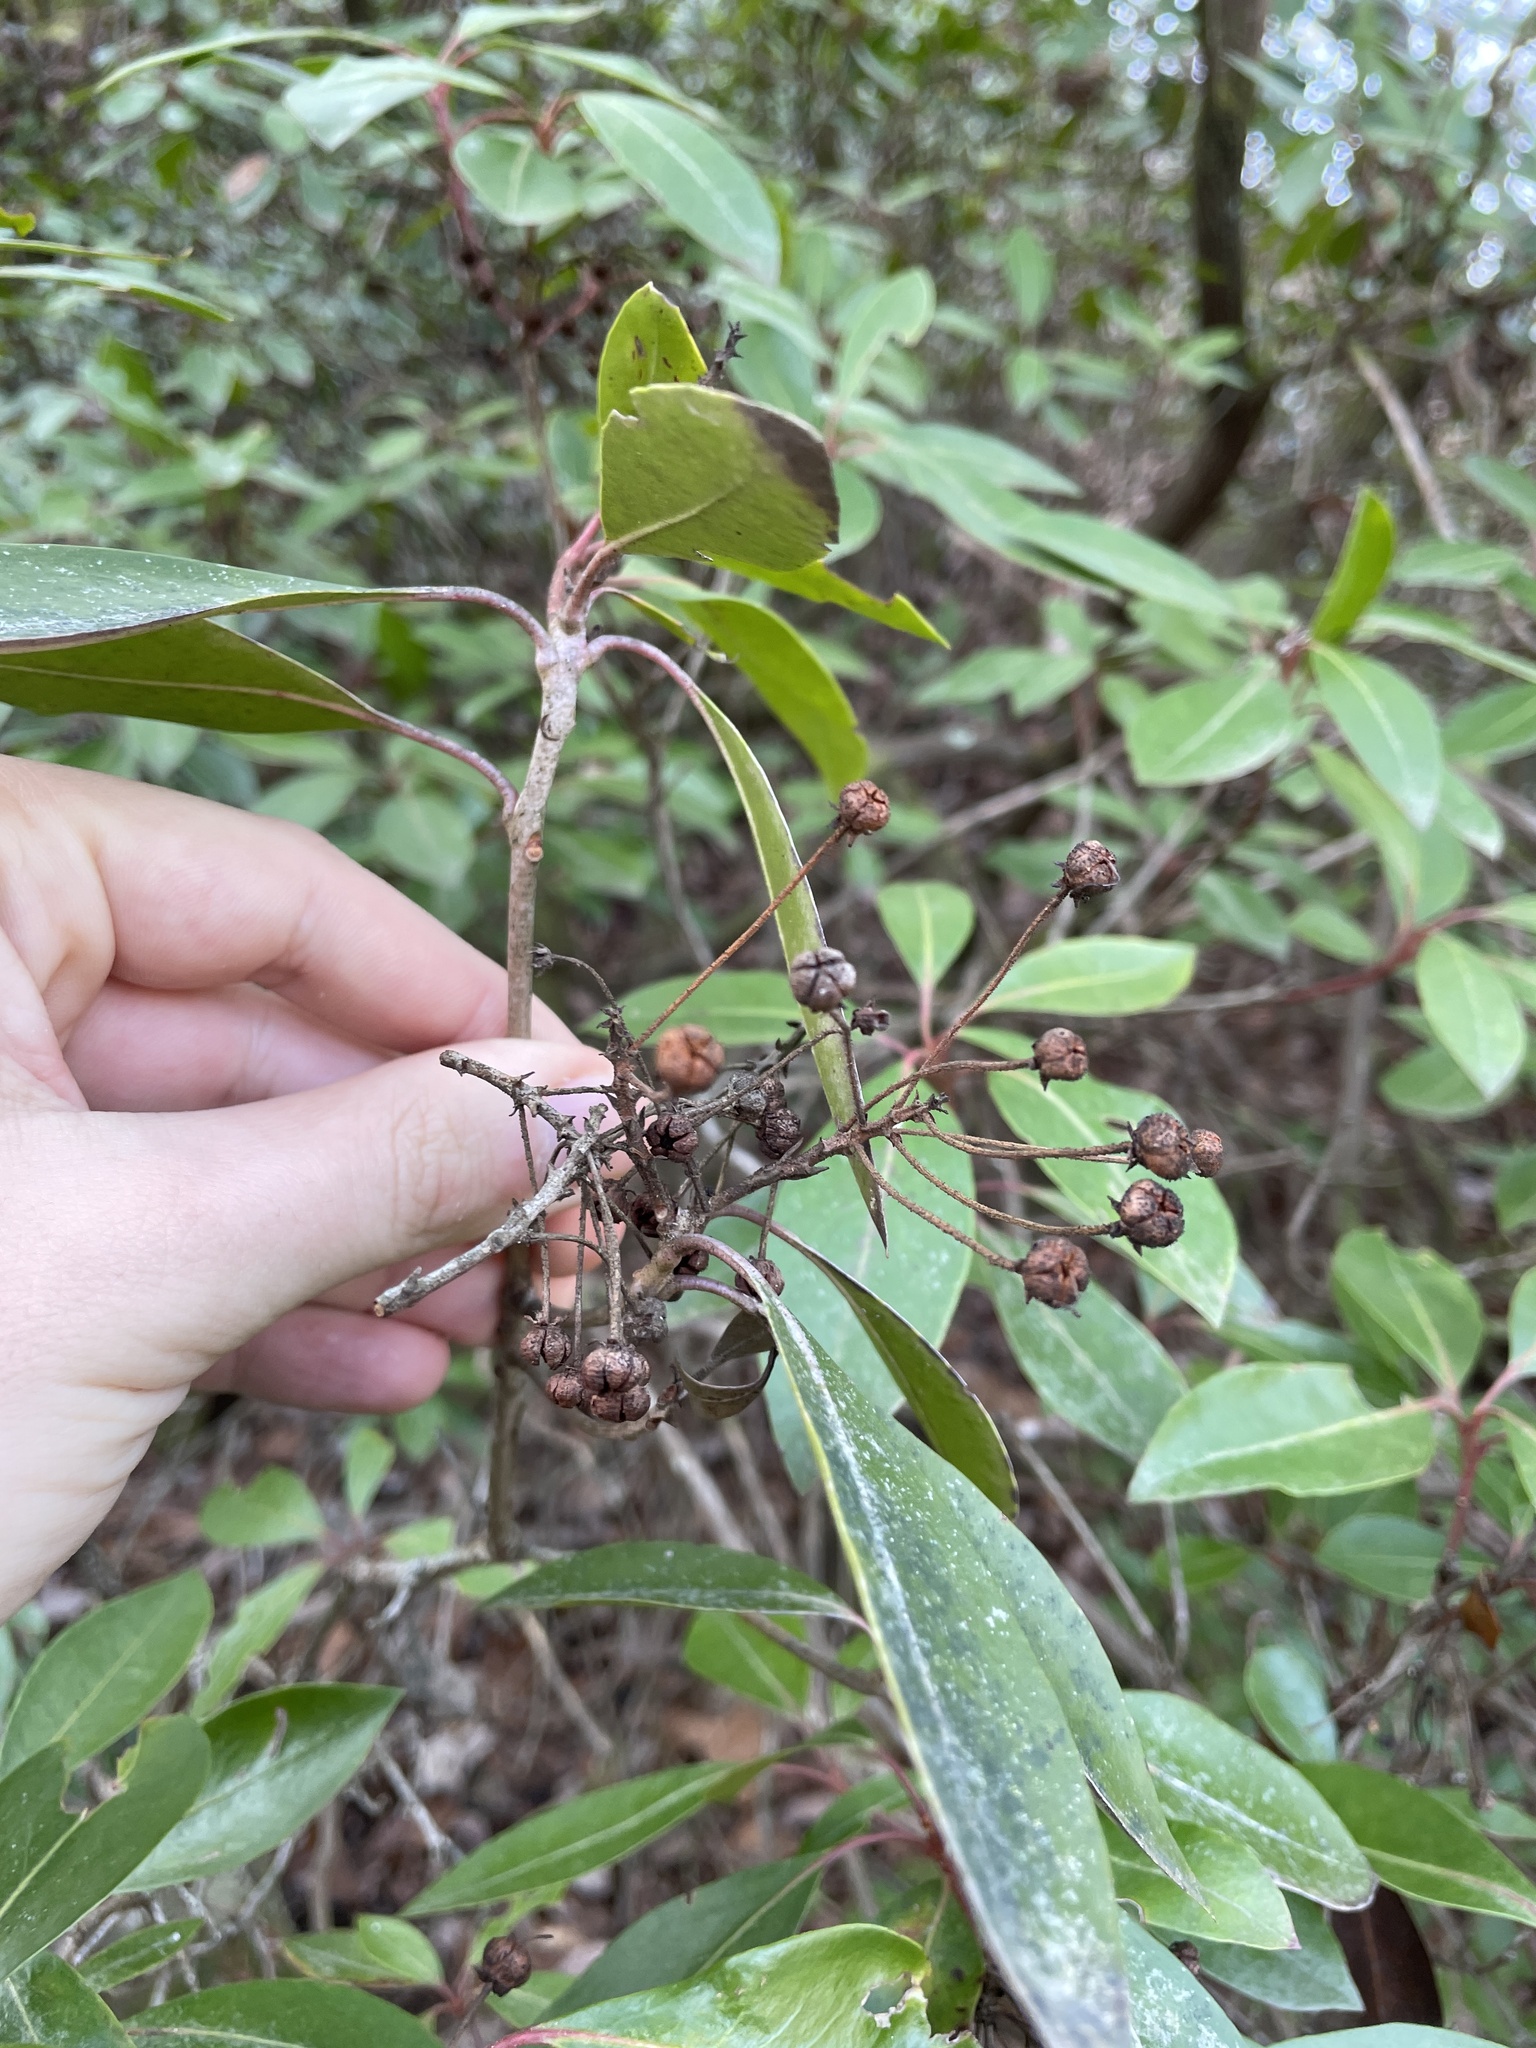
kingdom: Plantae
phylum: Tracheophyta
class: Magnoliopsida
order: Ericales
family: Ericaceae
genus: Kalmia
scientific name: Kalmia latifolia
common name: Mountain-laurel
